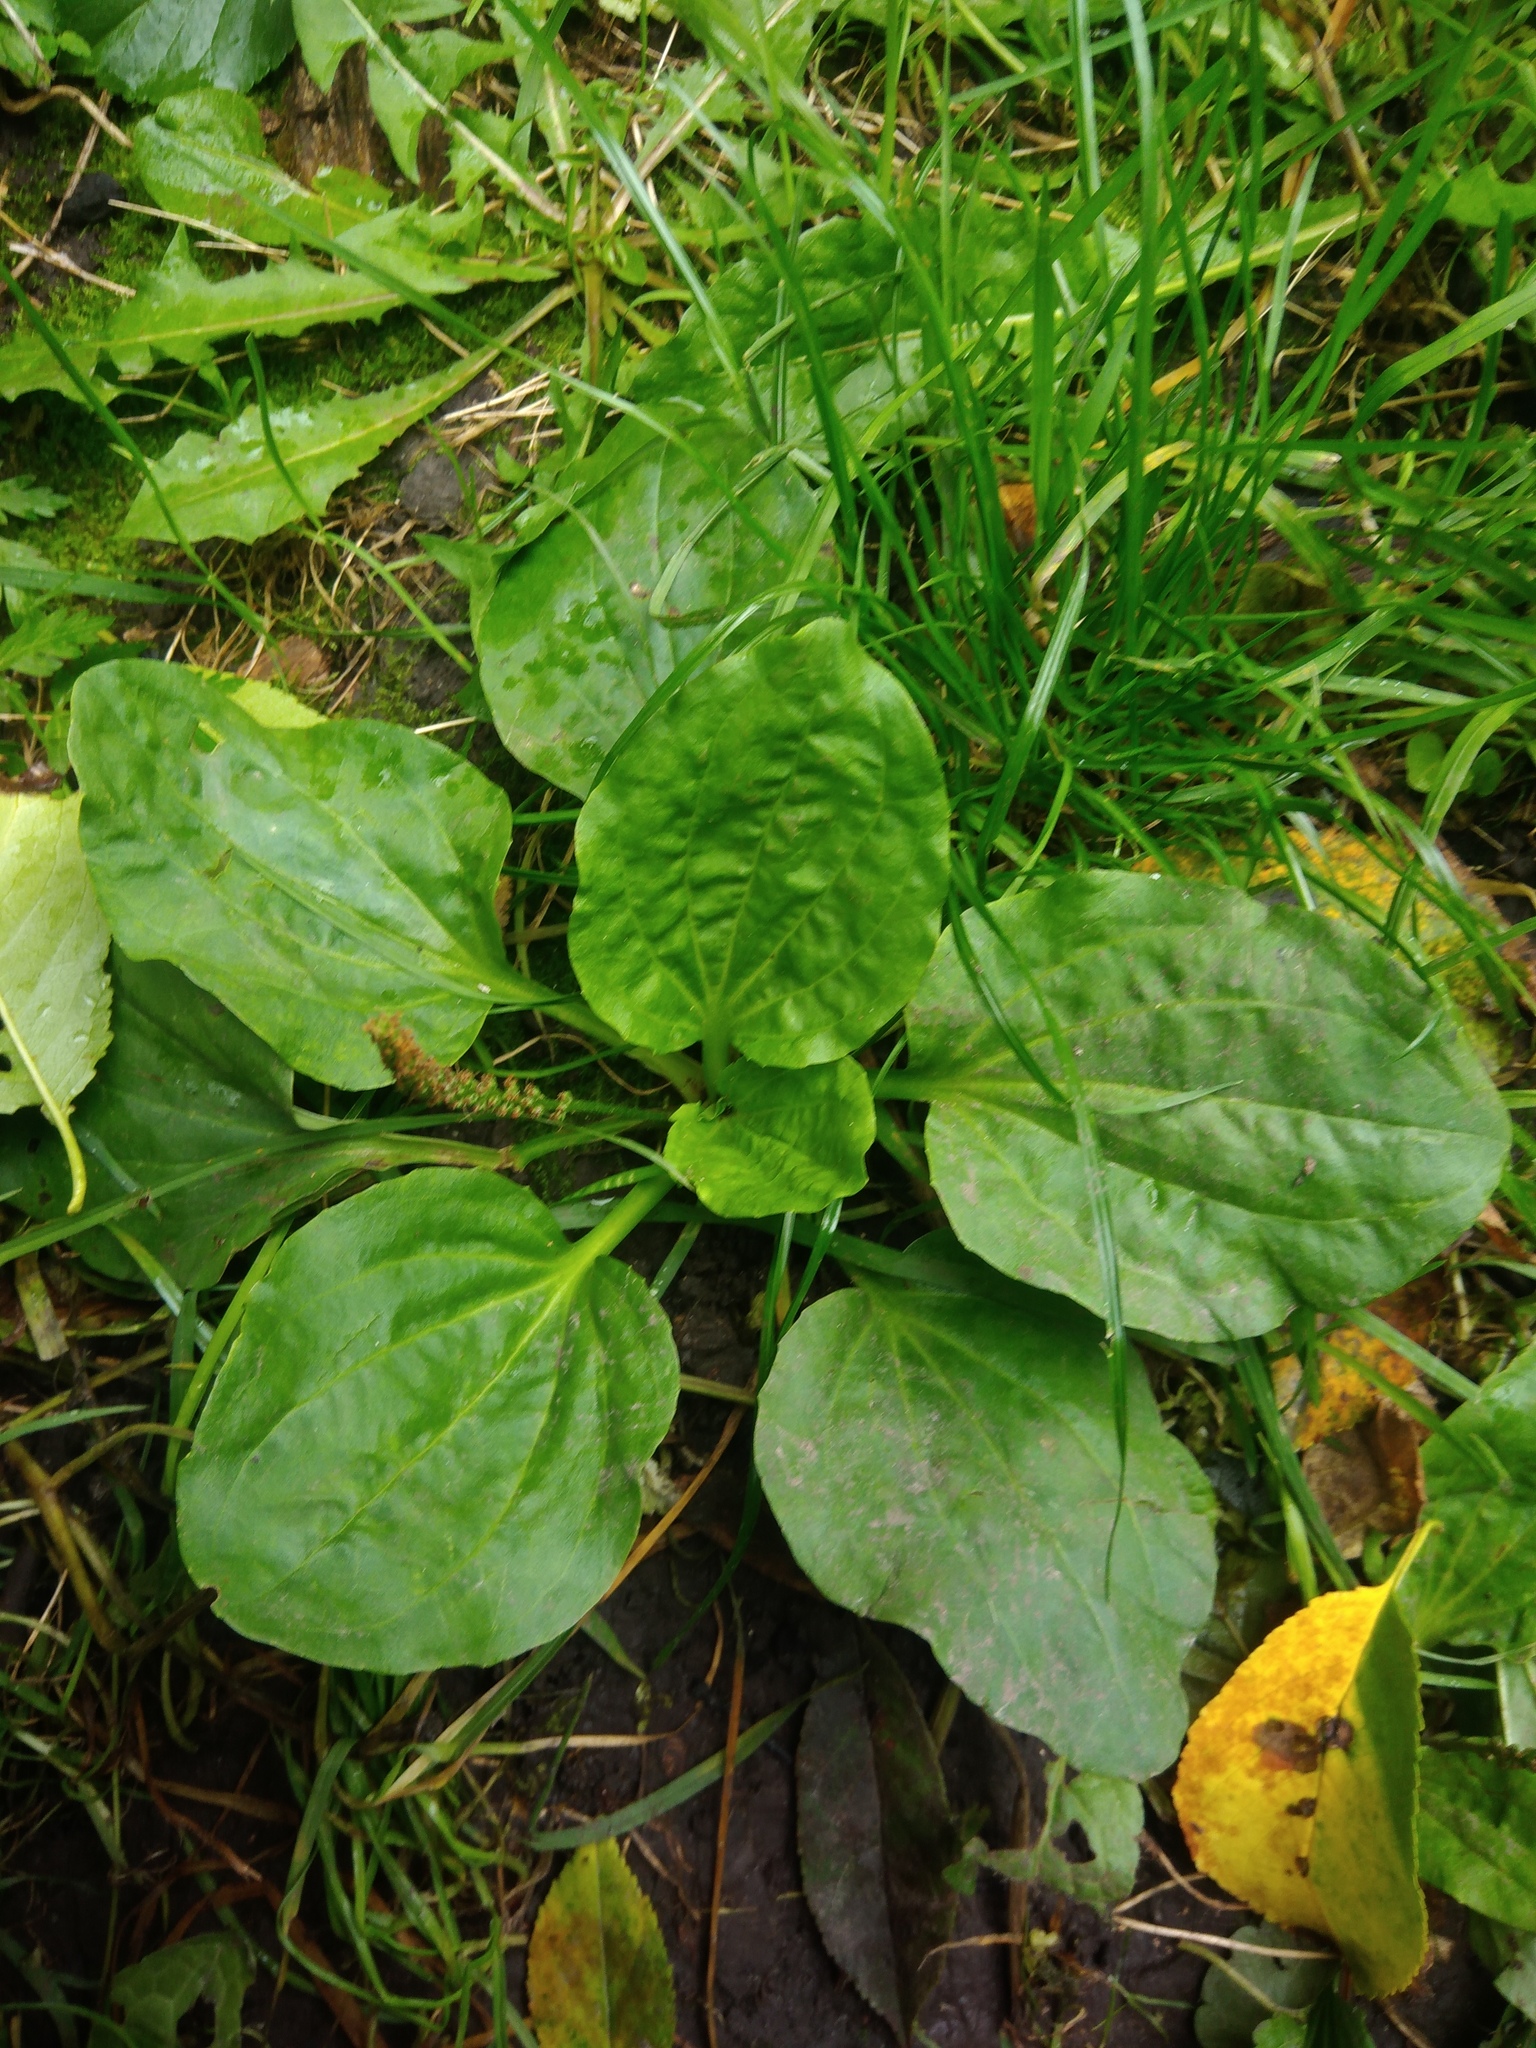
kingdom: Plantae
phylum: Tracheophyta
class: Magnoliopsida
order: Lamiales
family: Plantaginaceae
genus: Plantago
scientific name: Plantago major
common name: Common plantain
